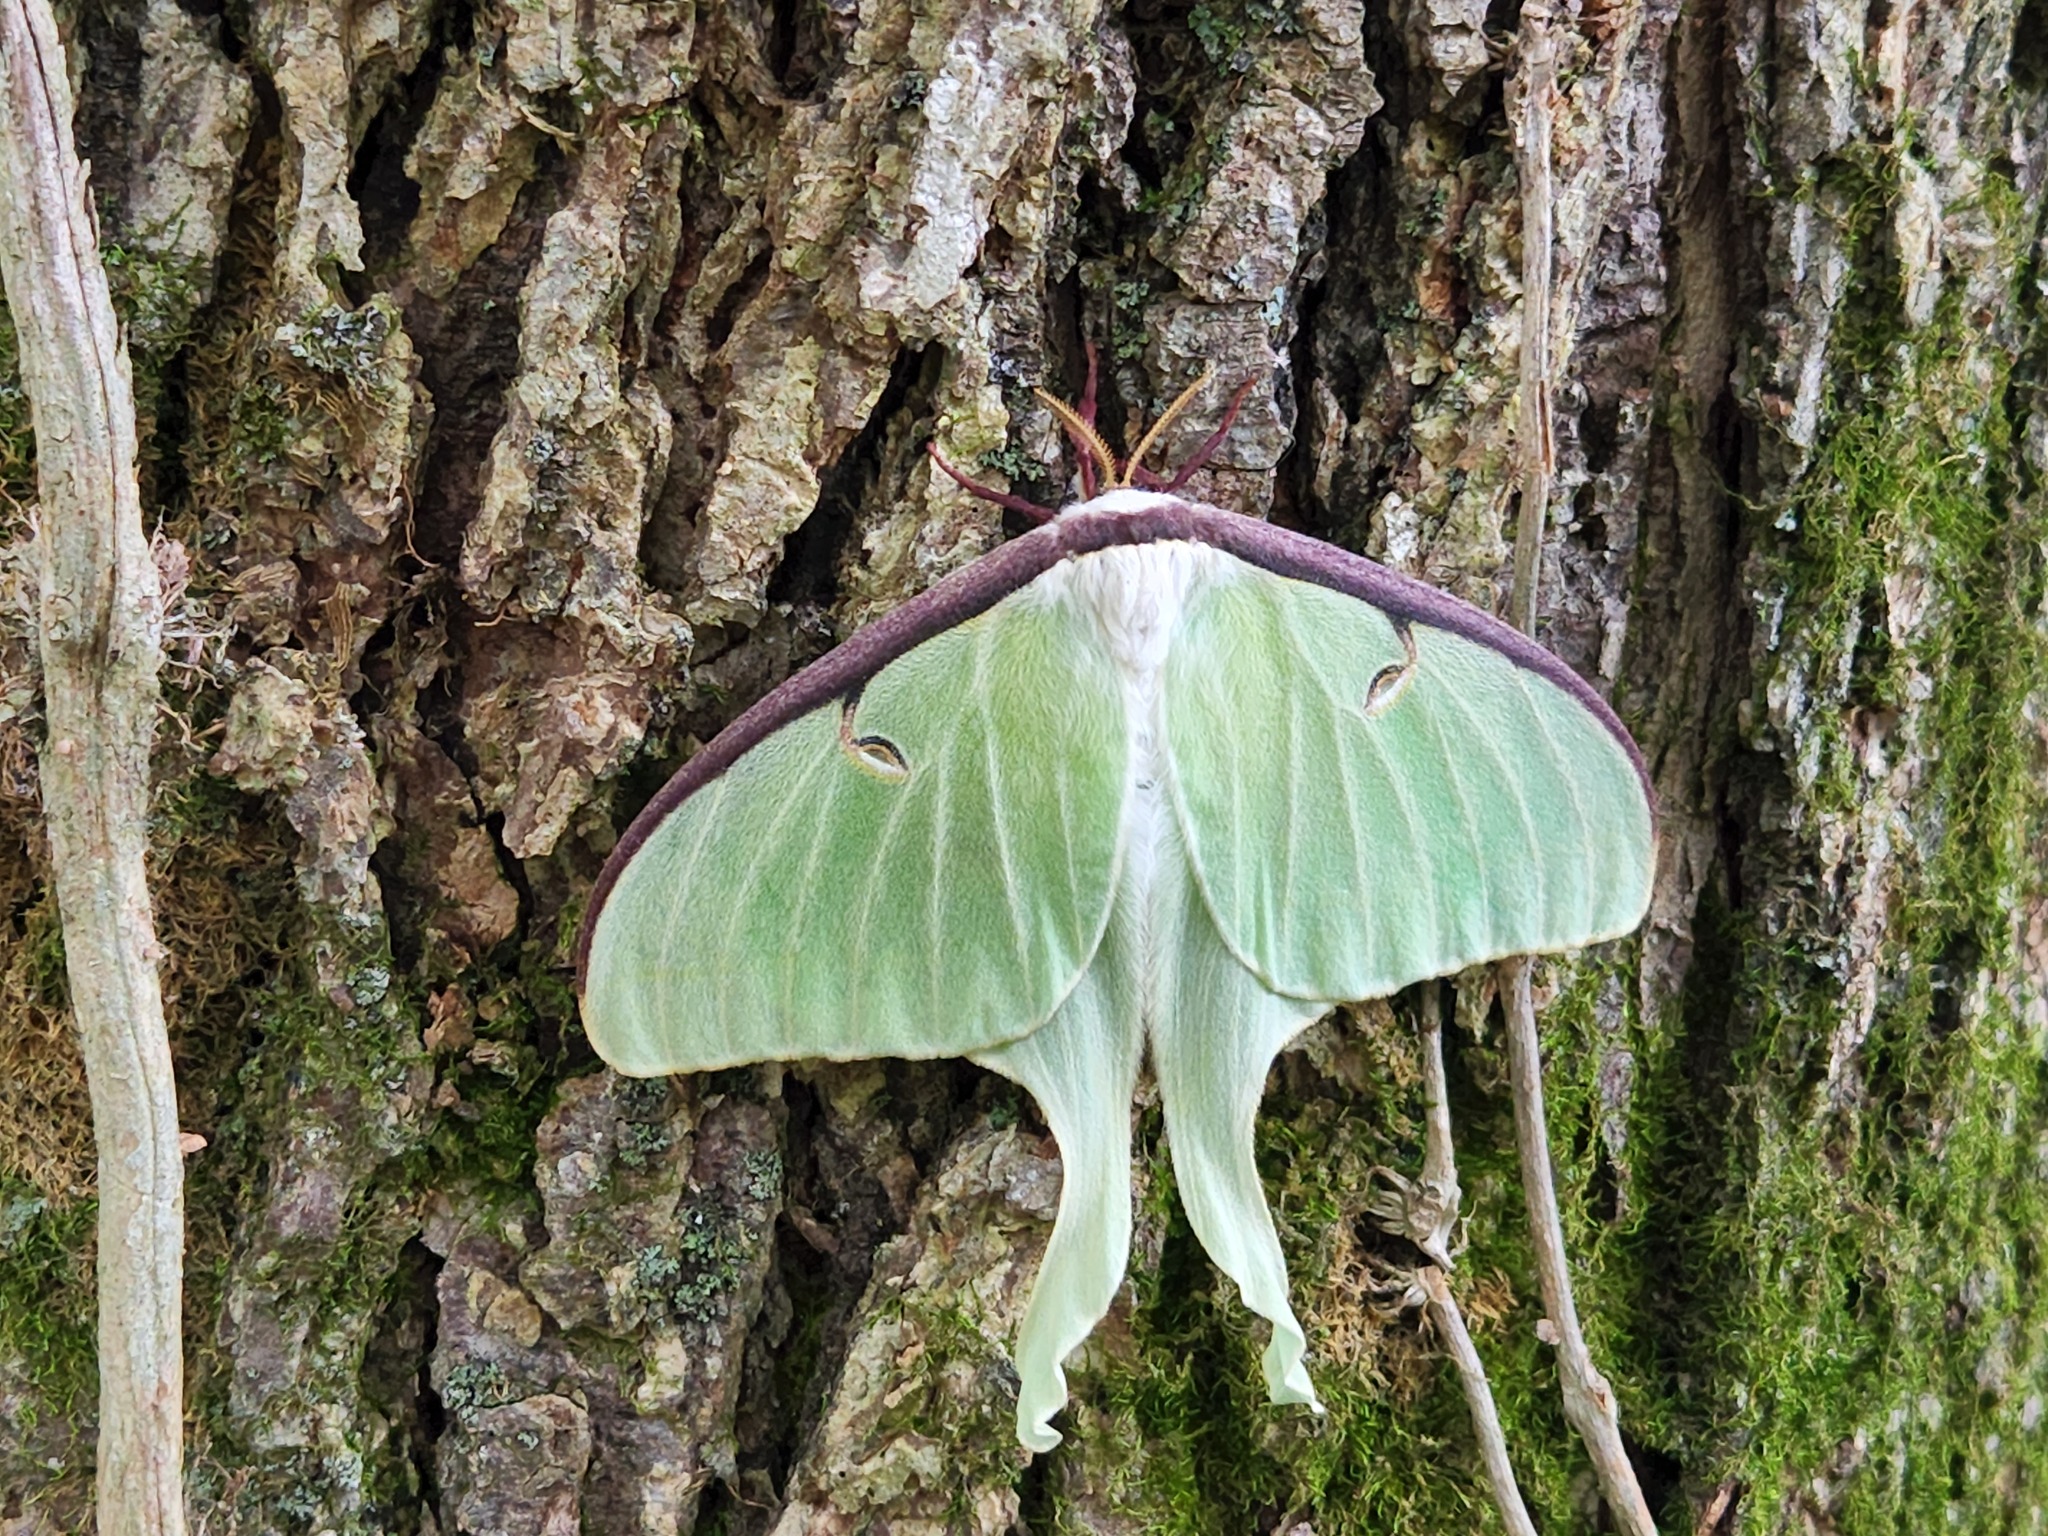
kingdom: Animalia
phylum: Arthropoda
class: Insecta
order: Lepidoptera
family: Saturniidae
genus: Actias
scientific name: Actias luna
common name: Luna moth
